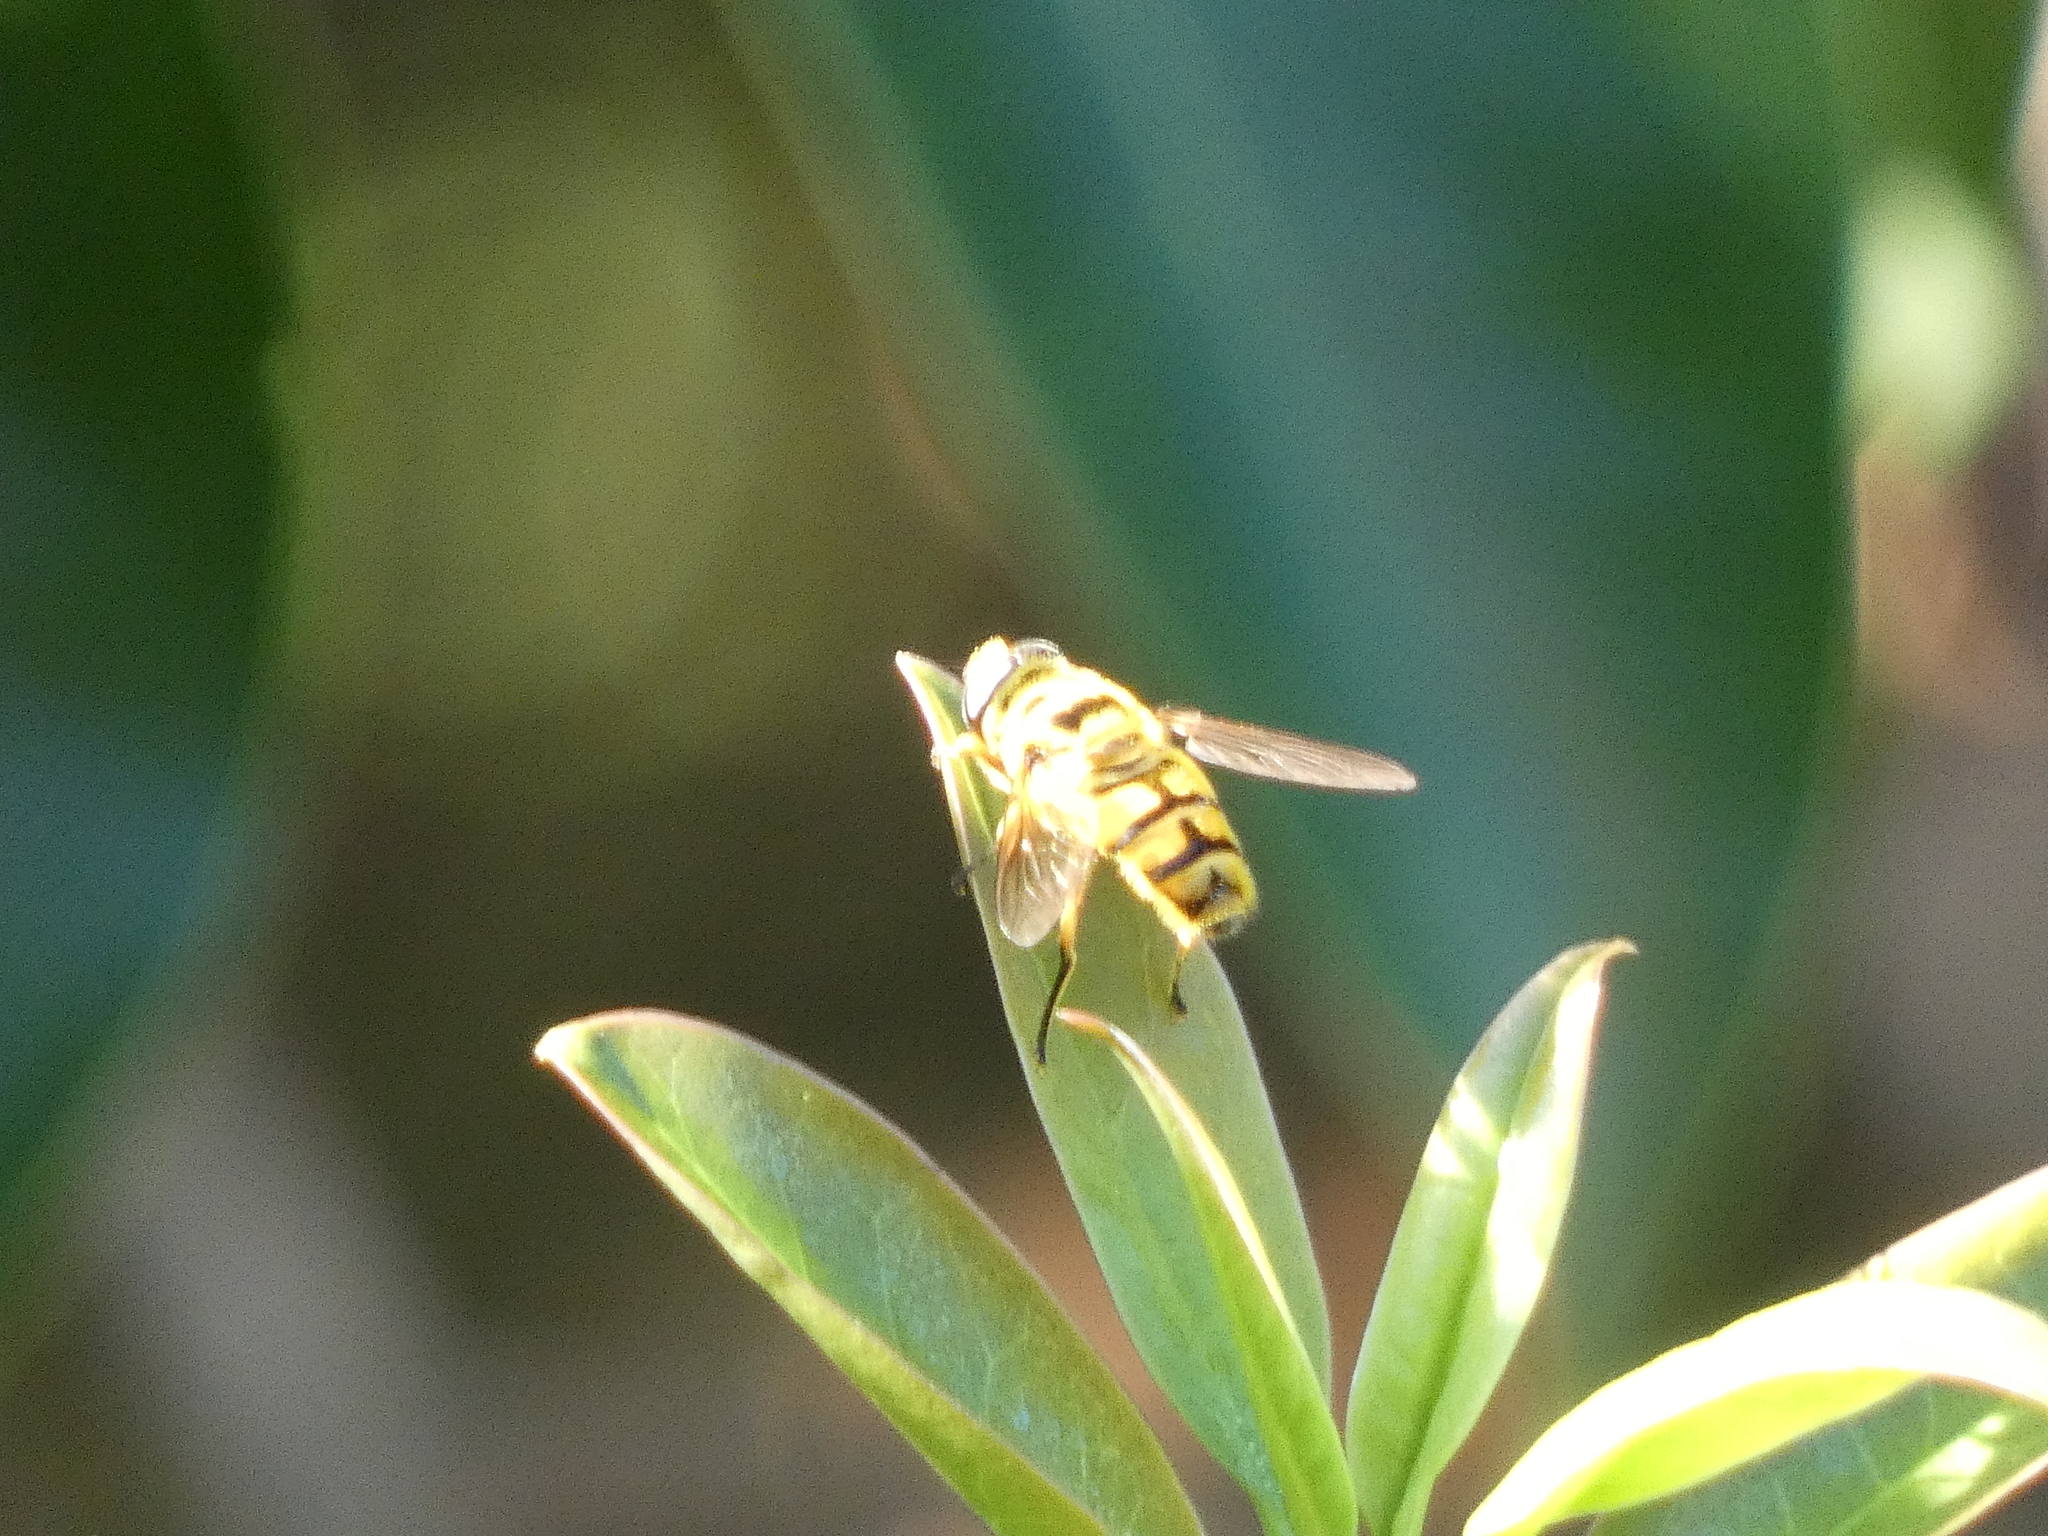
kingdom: Animalia
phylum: Arthropoda
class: Insecta
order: Diptera
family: Syrphidae
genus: Myathropa
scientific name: Myathropa florea
